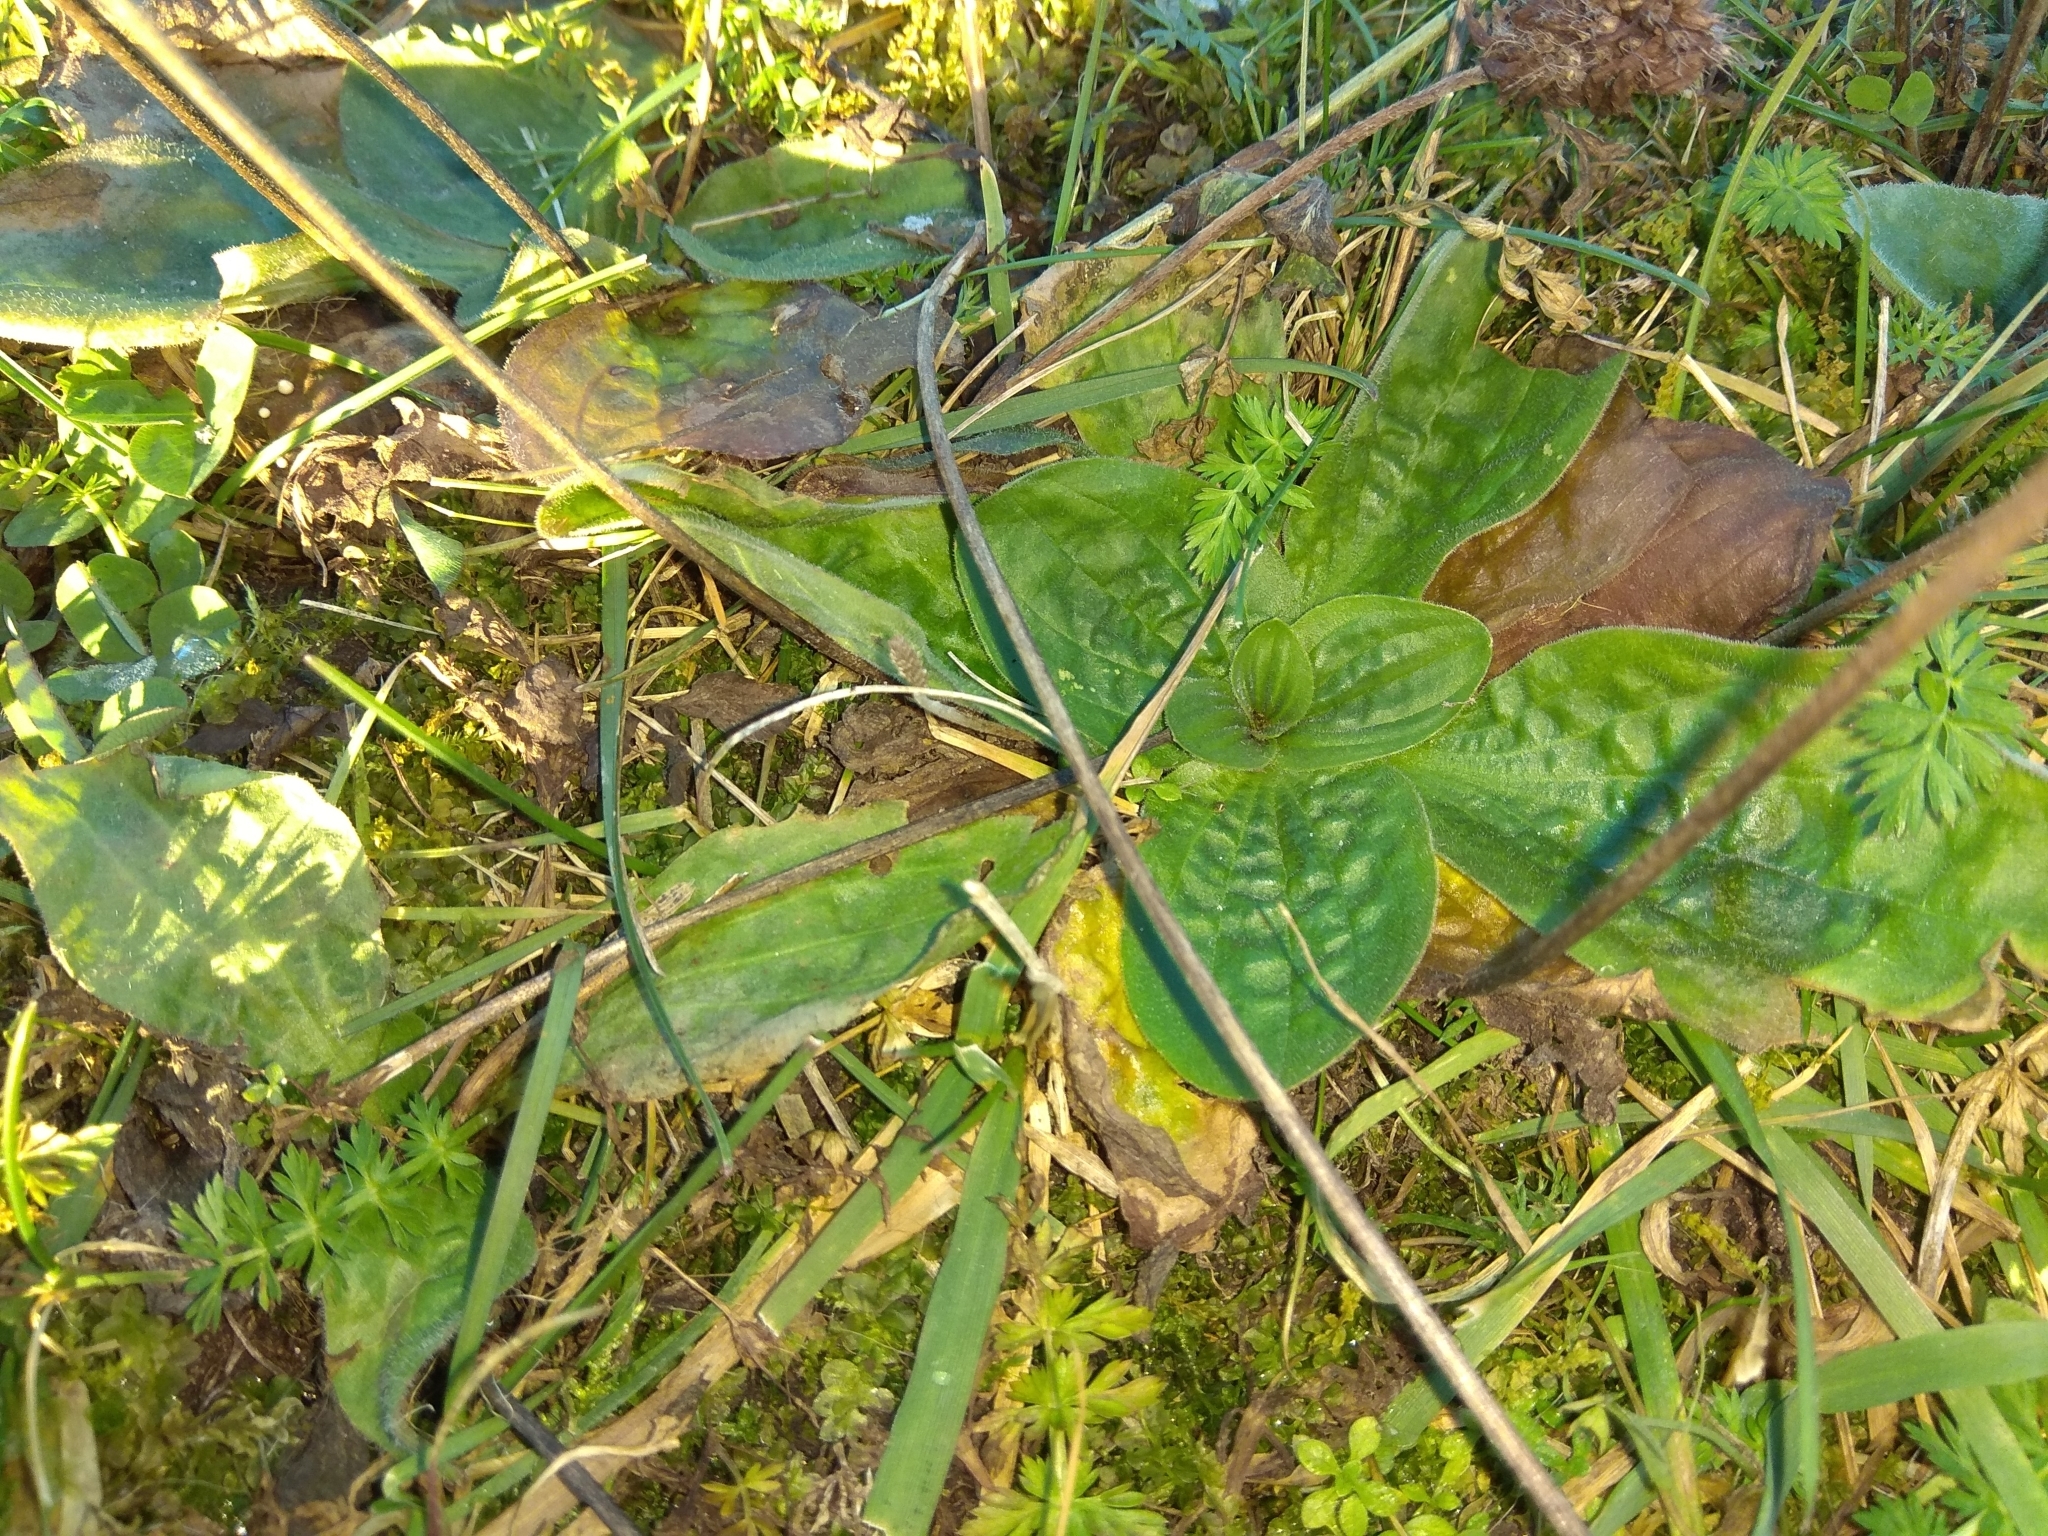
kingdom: Plantae
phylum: Tracheophyta
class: Magnoliopsida
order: Lamiales
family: Plantaginaceae
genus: Plantago
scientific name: Plantago major
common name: Common plantain
